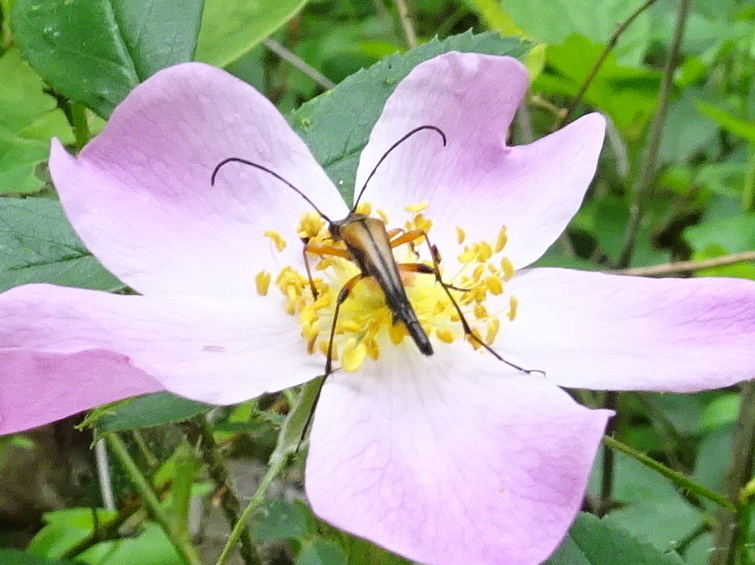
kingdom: Animalia
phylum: Arthropoda
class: Insecta
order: Coleoptera
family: Cerambycidae
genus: Strangalia
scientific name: Strangalia famelica
